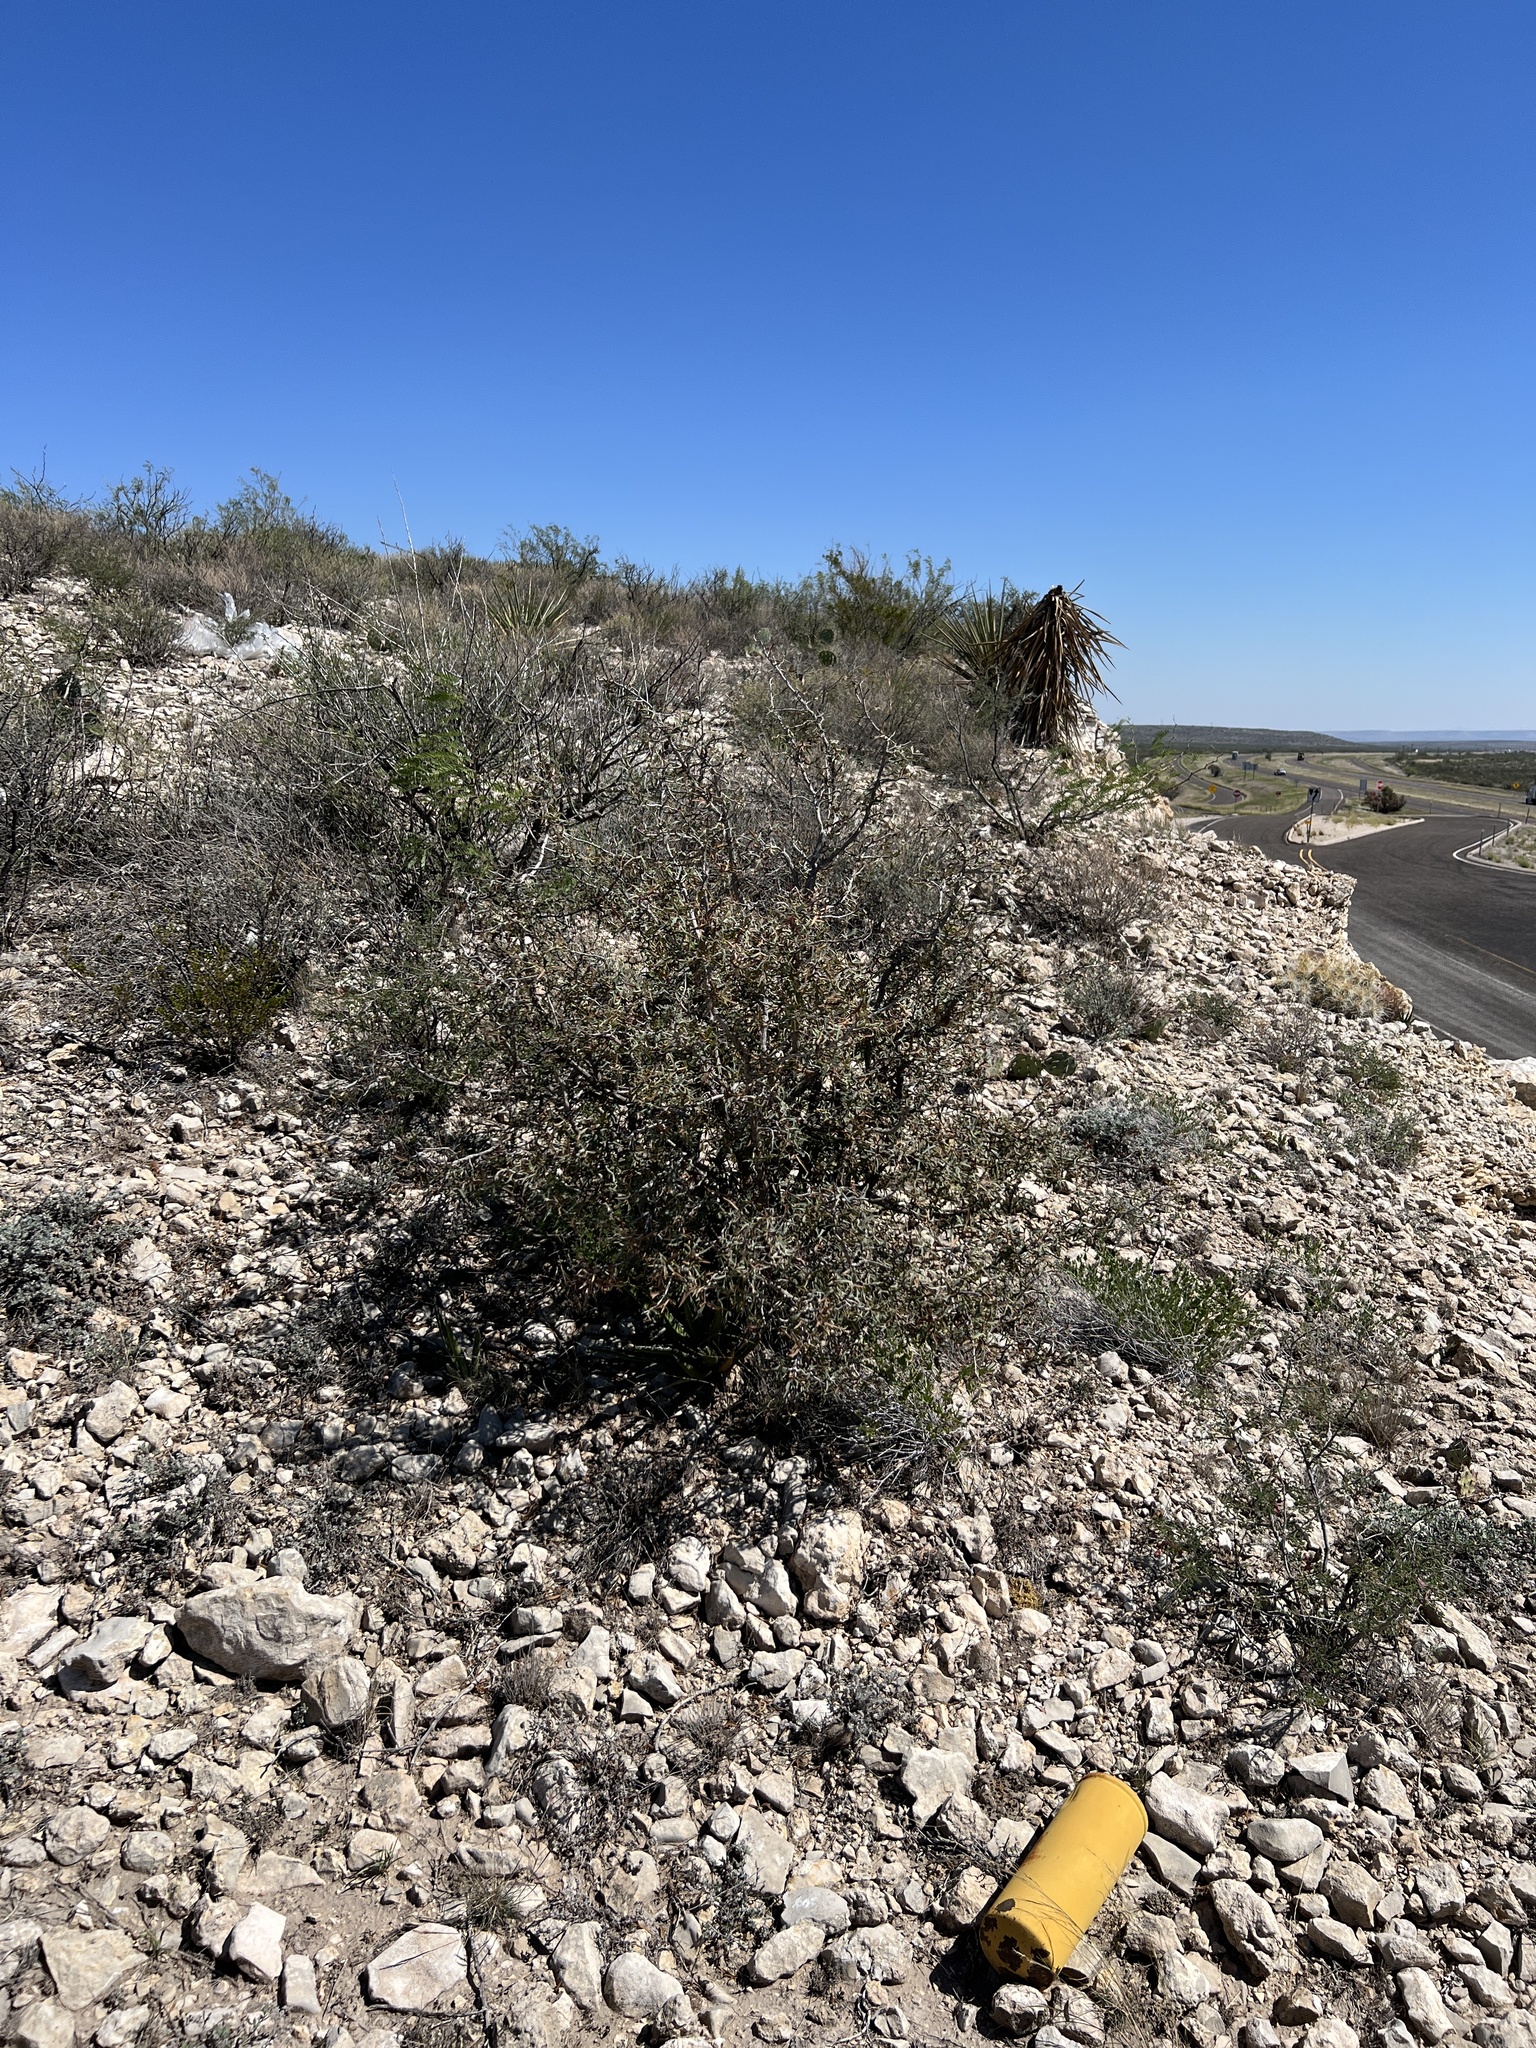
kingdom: Plantae
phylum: Tracheophyta
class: Magnoliopsida
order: Ranunculales
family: Berberidaceae
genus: Alloberberis
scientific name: Alloberberis trifoliolata
